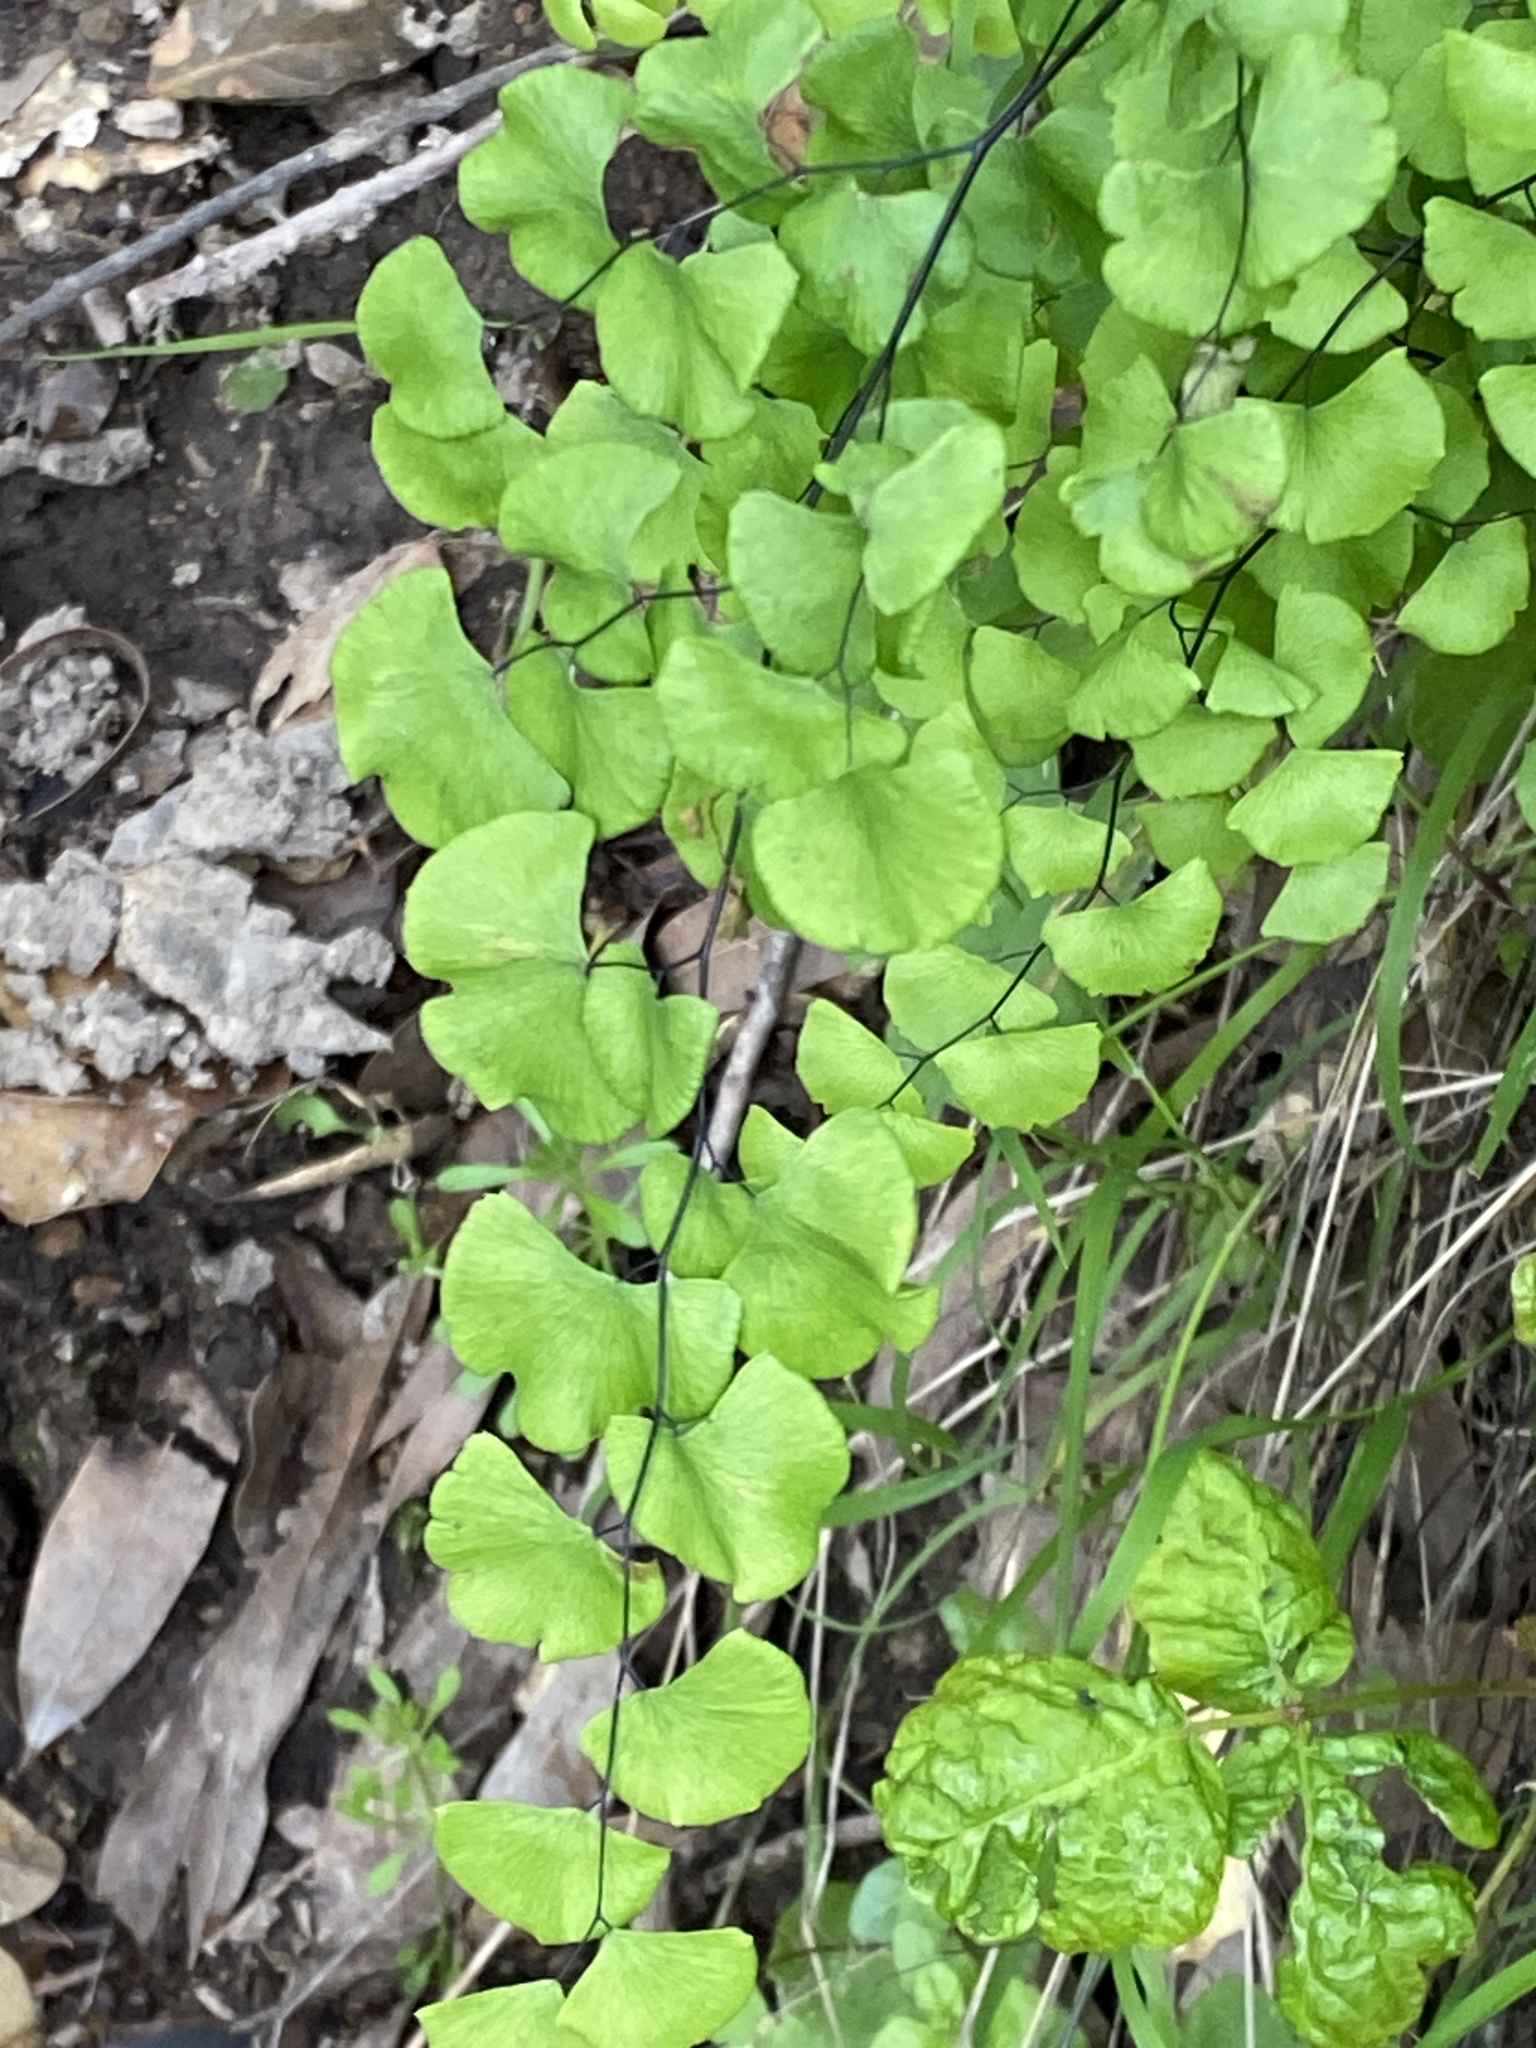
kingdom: Plantae
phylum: Tracheophyta
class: Polypodiopsida
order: Polypodiales
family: Pteridaceae
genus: Adiantum
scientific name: Adiantum jordanii
